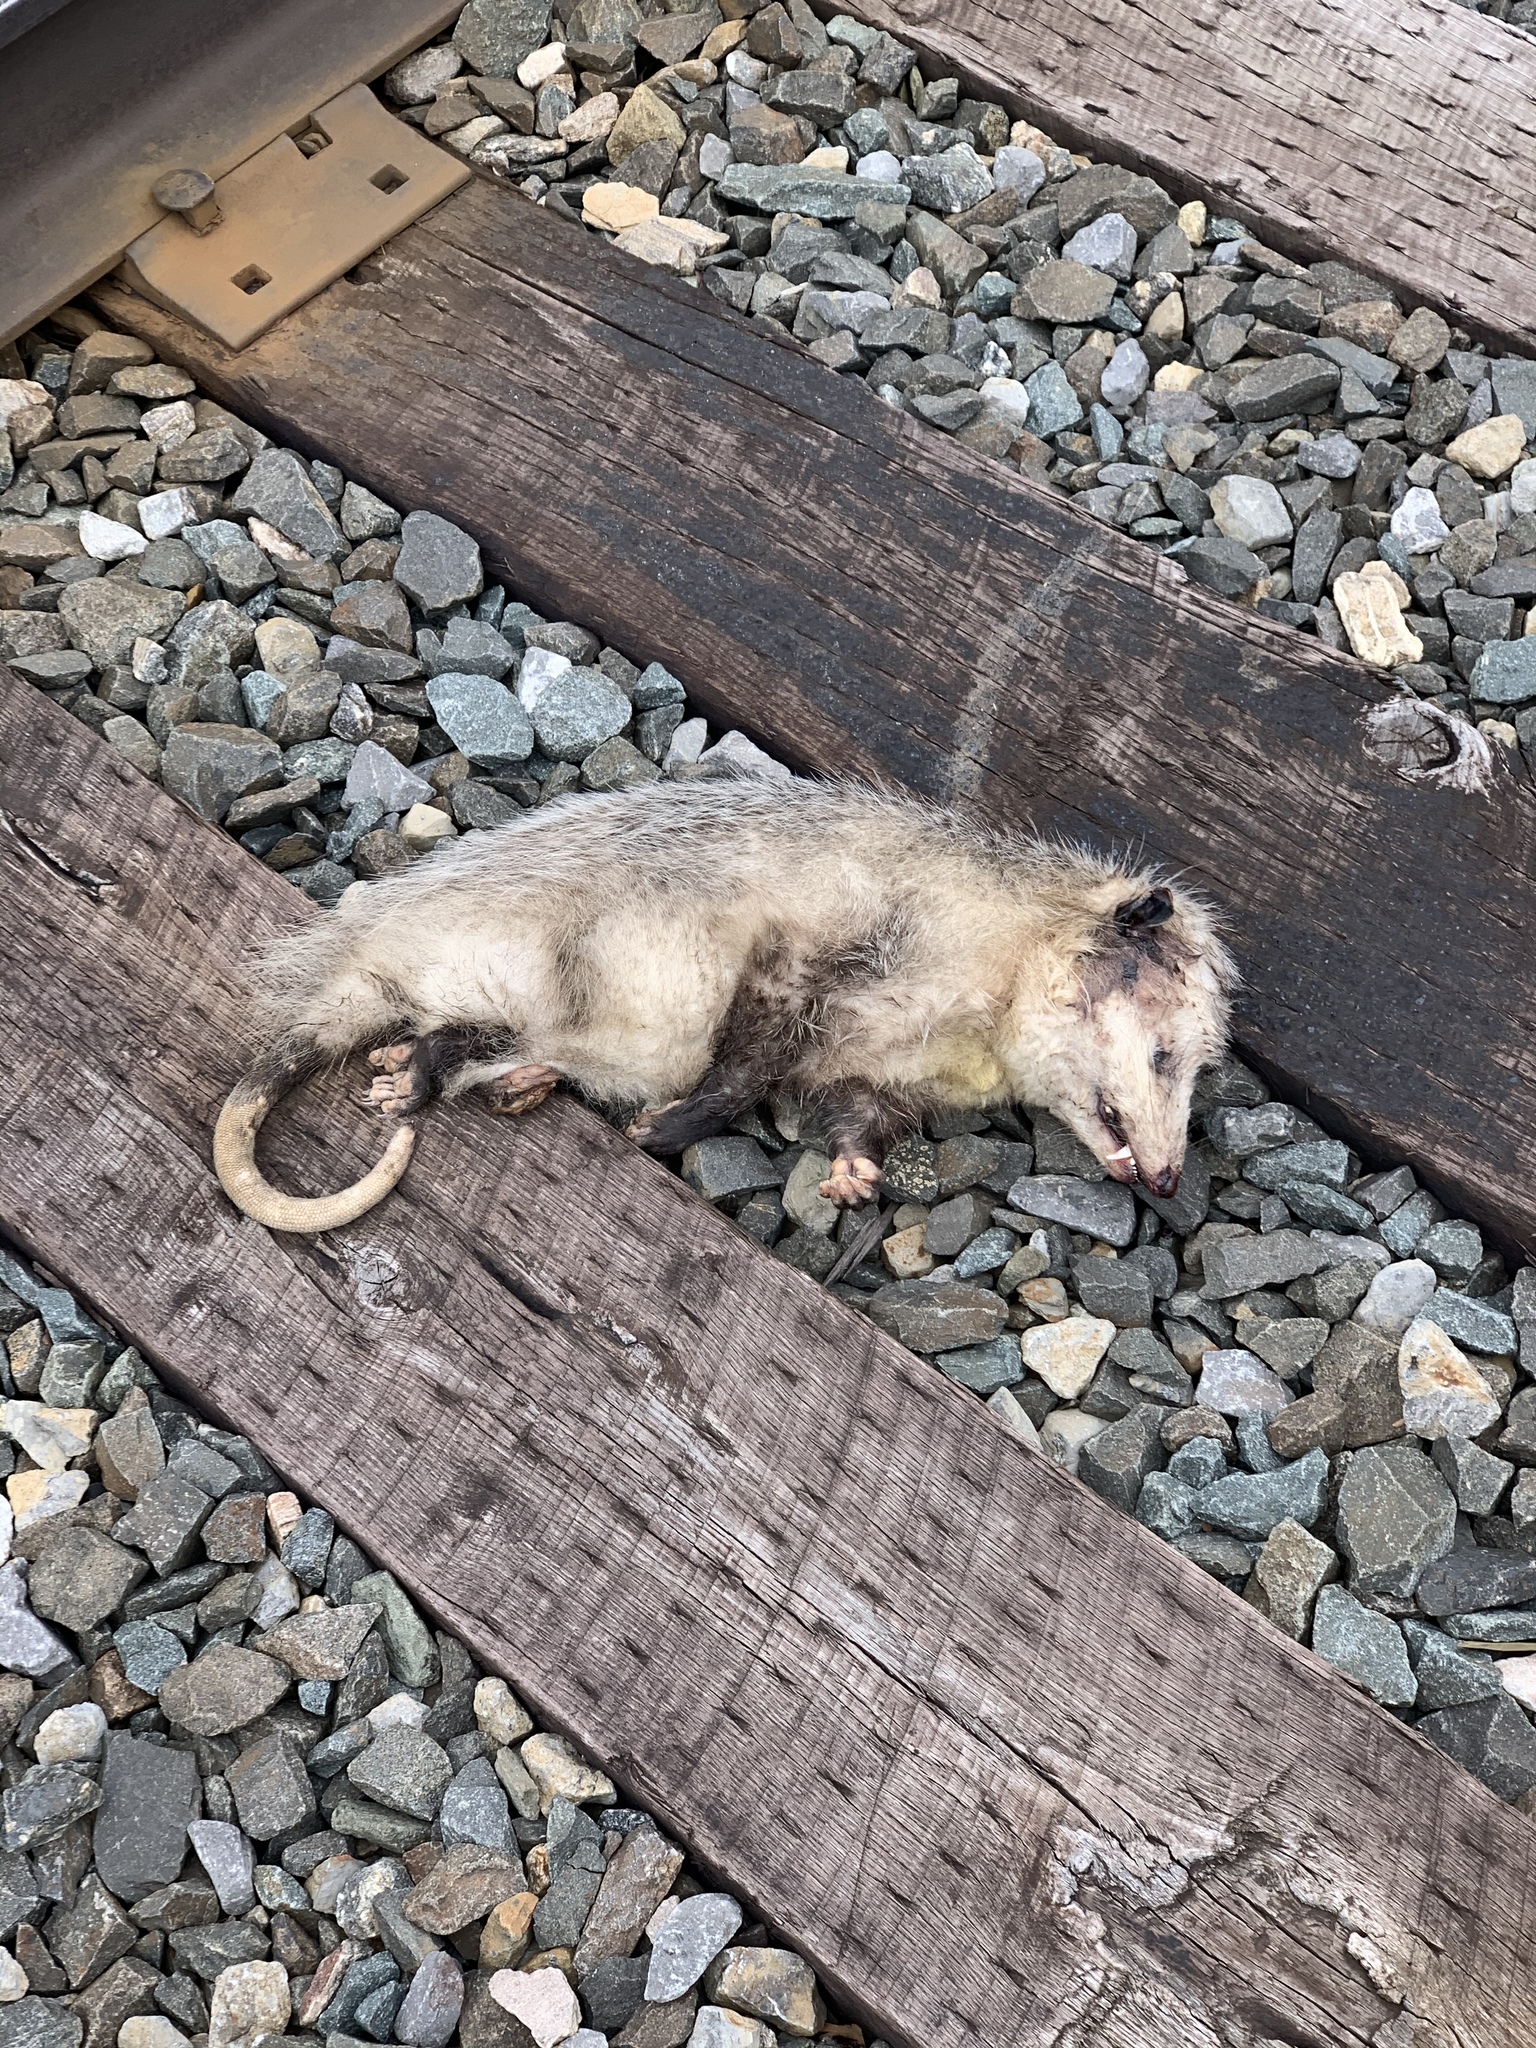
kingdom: Animalia
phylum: Chordata
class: Mammalia
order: Didelphimorphia
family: Didelphidae
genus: Didelphis
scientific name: Didelphis virginiana
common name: Virginia opossum
